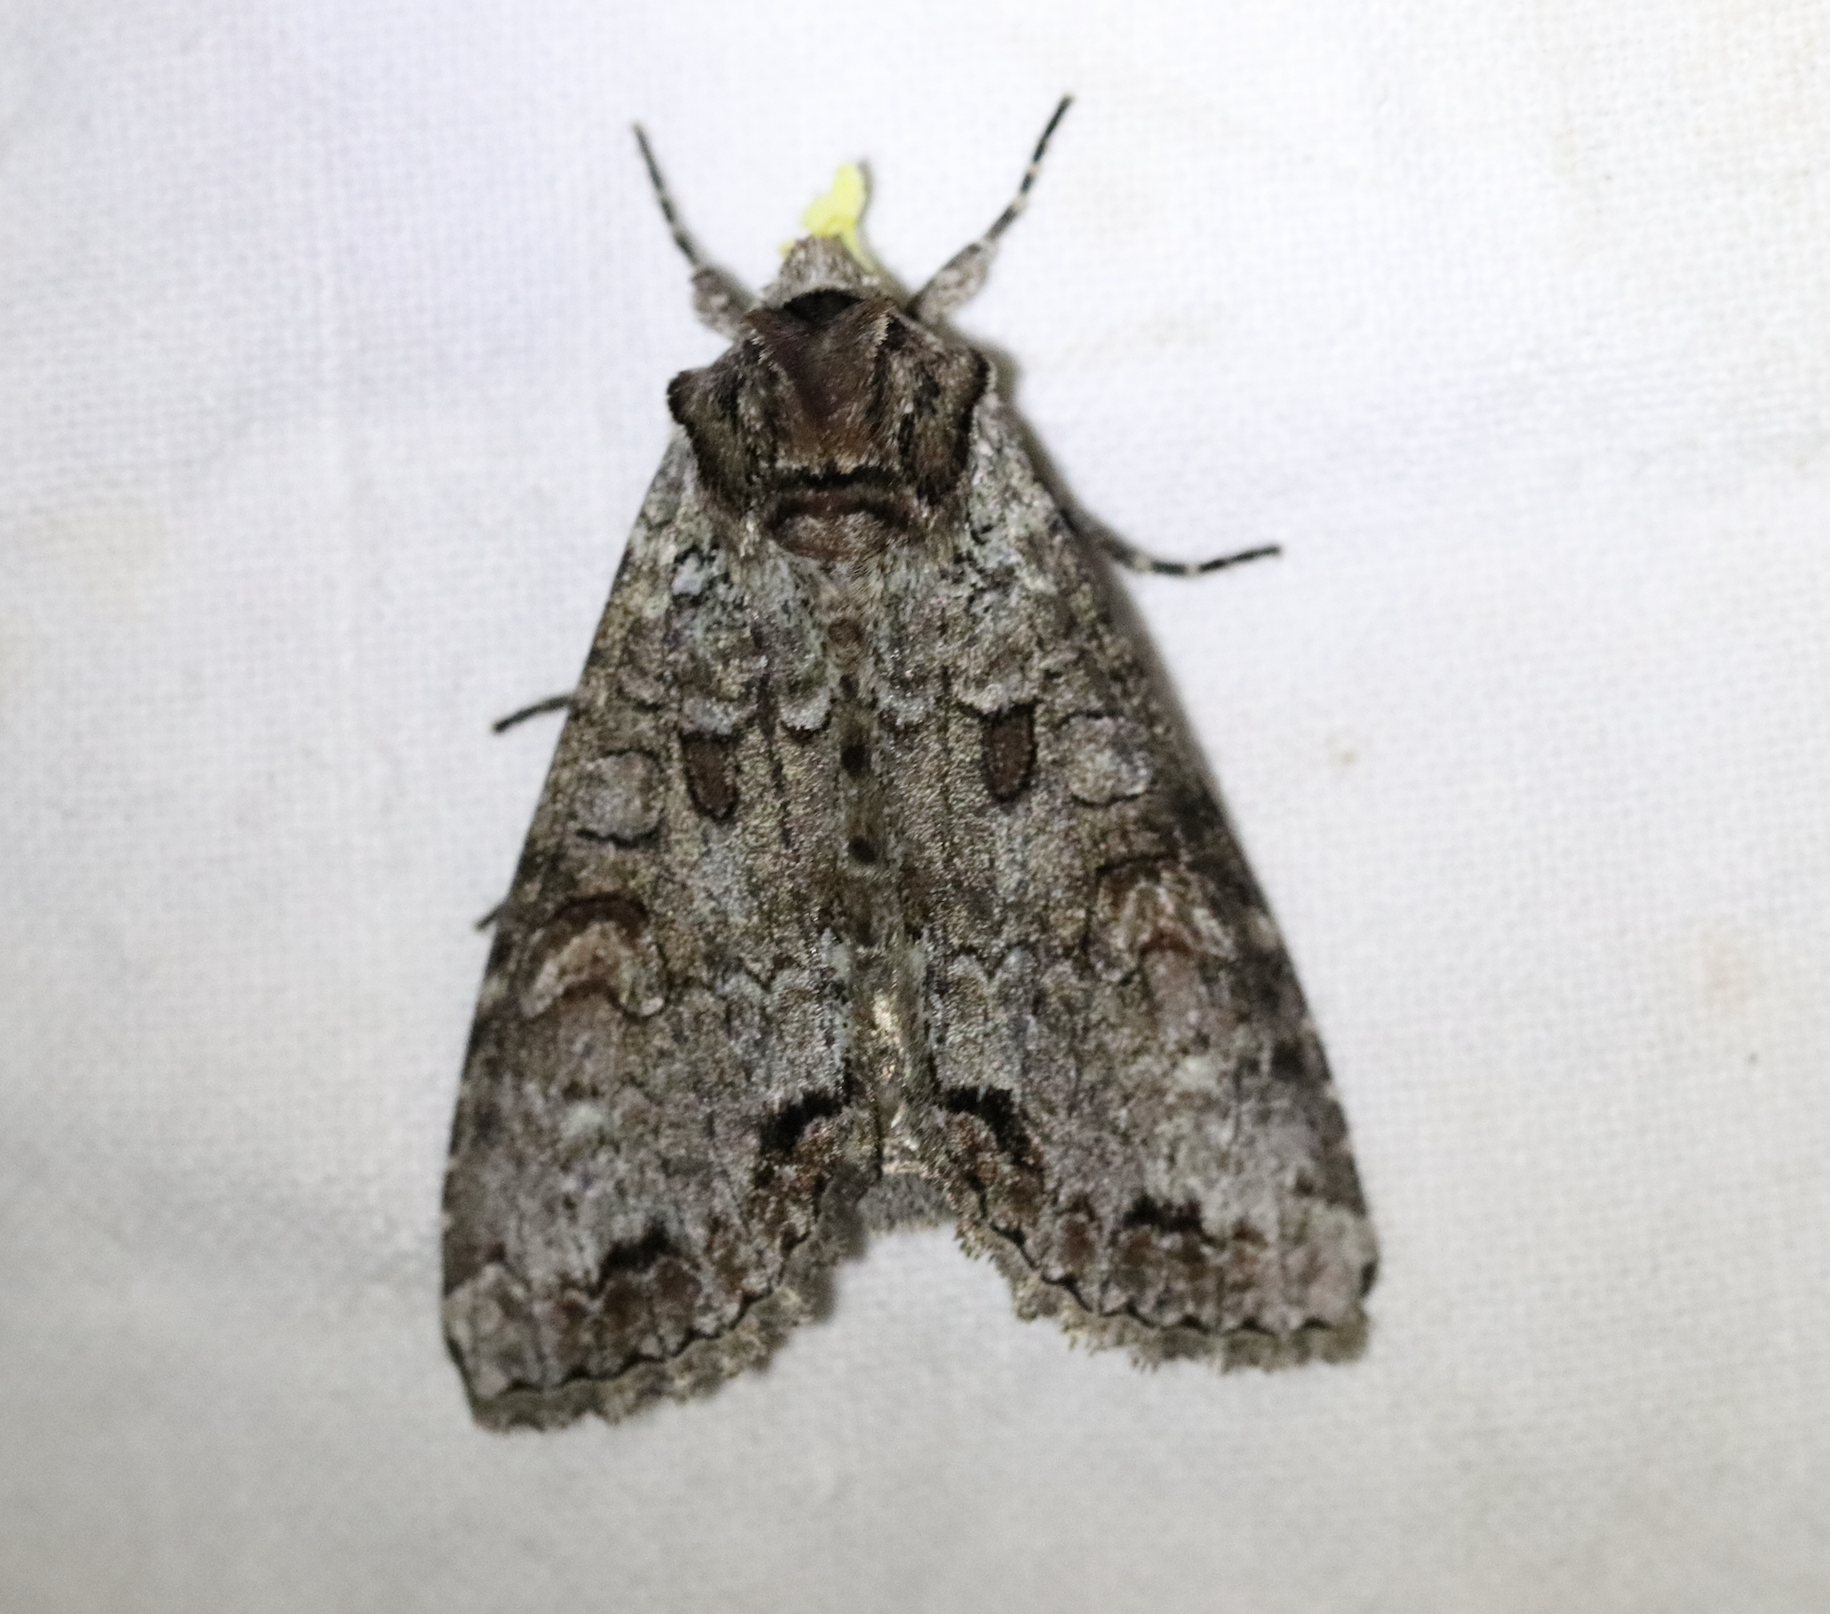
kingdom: Animalia
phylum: Arthropoda
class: Insecta
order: Lepidoptera
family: Noctuidae
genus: Polia
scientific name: Polia bombycina
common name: Pale shining brown
